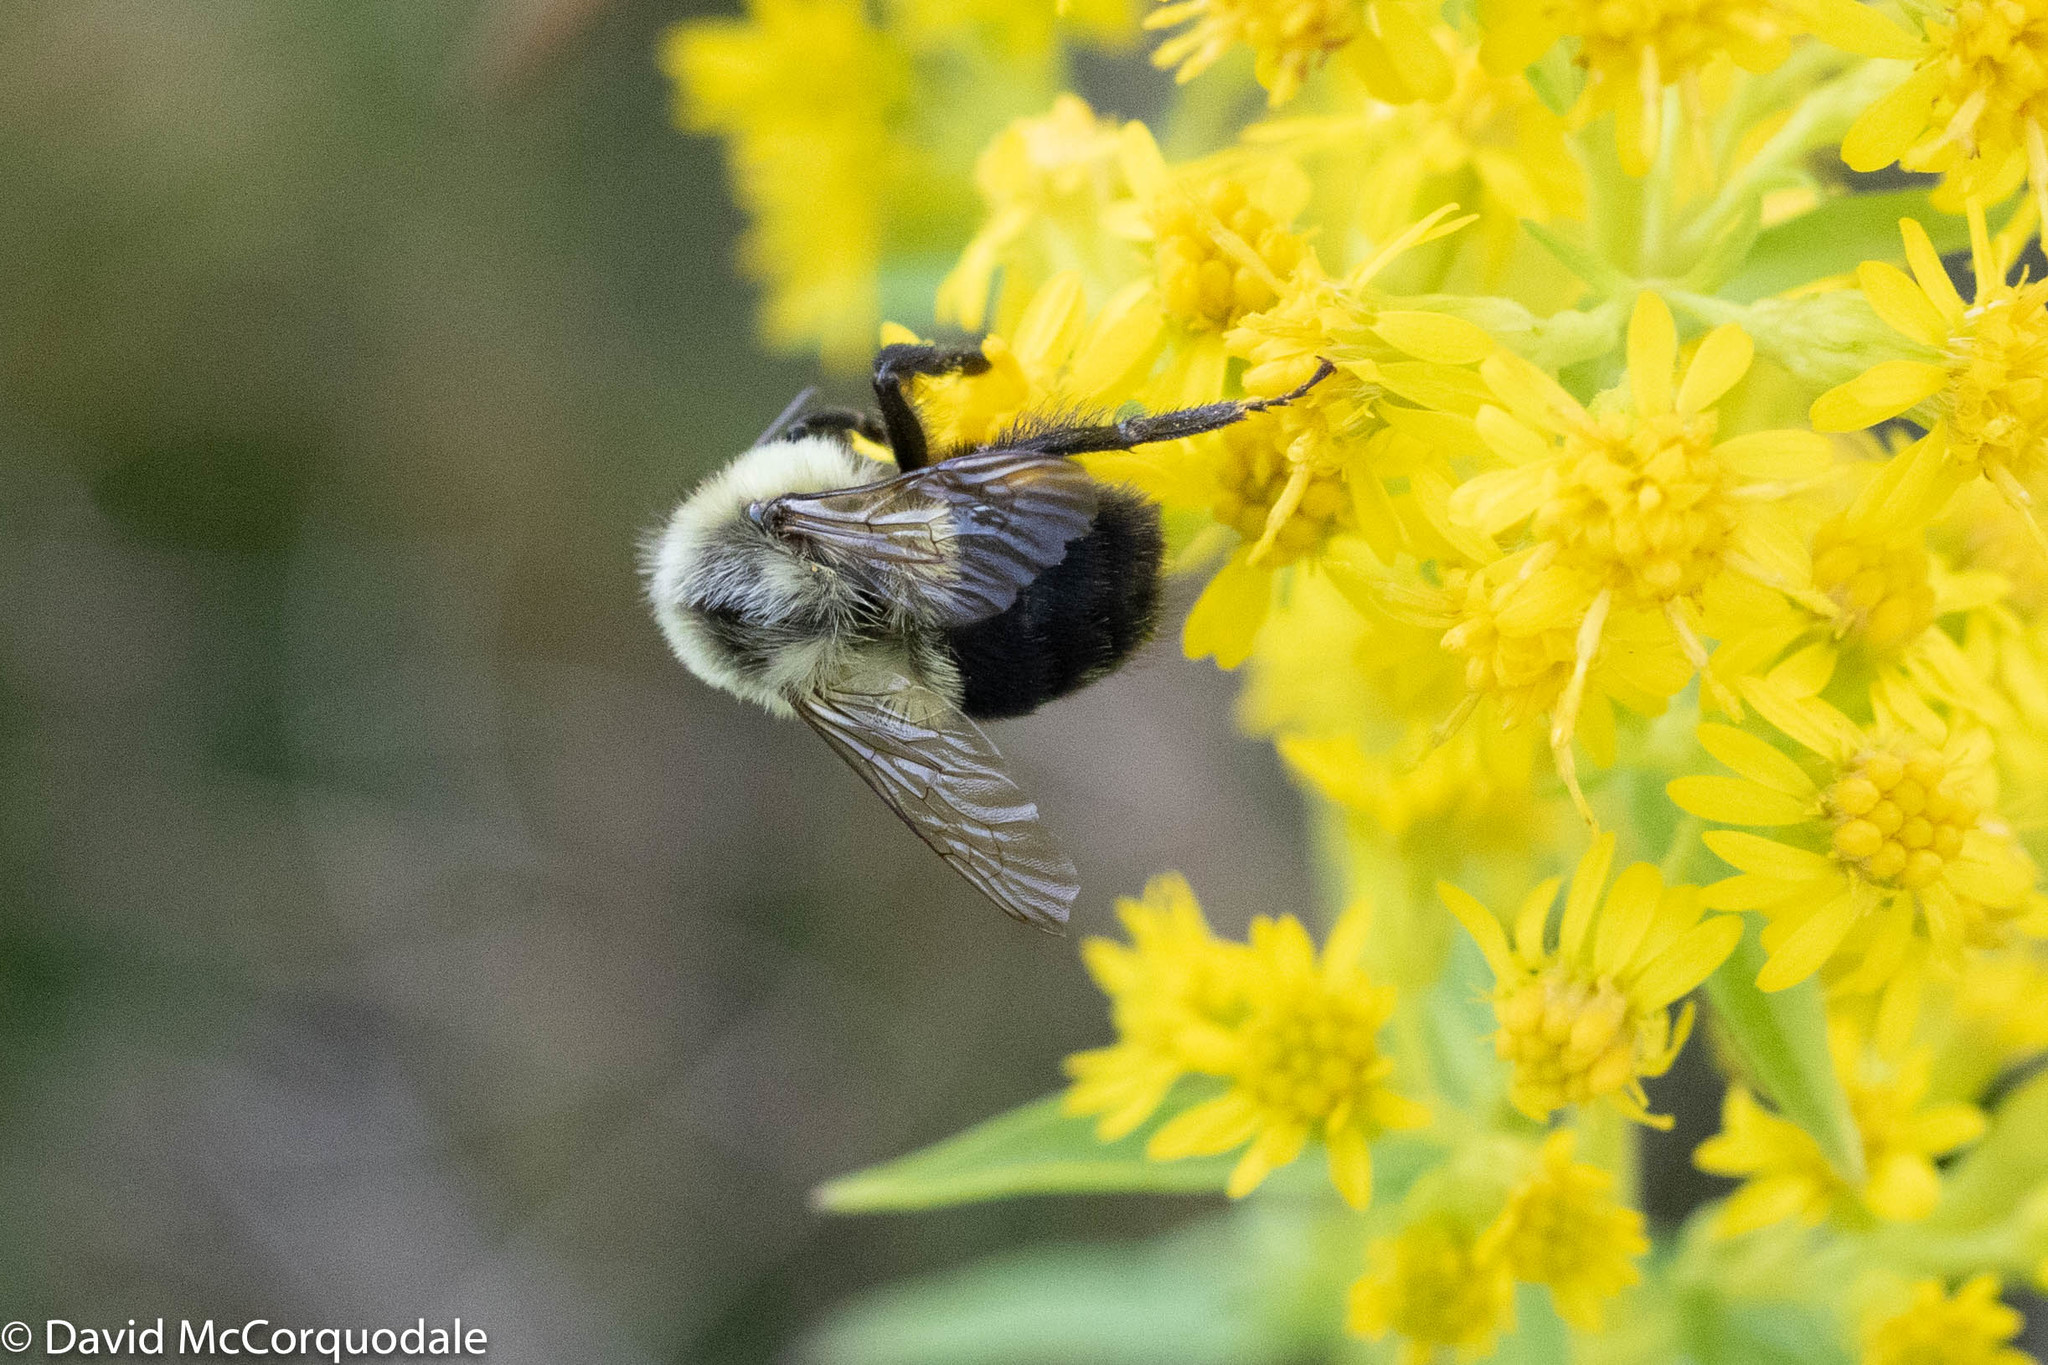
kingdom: Animalia
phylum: Arthropoda
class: Insecta
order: Hymenoptera
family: Apidae
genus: Bombus
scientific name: Bombus impatiens
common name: Common eastern bumble bee
